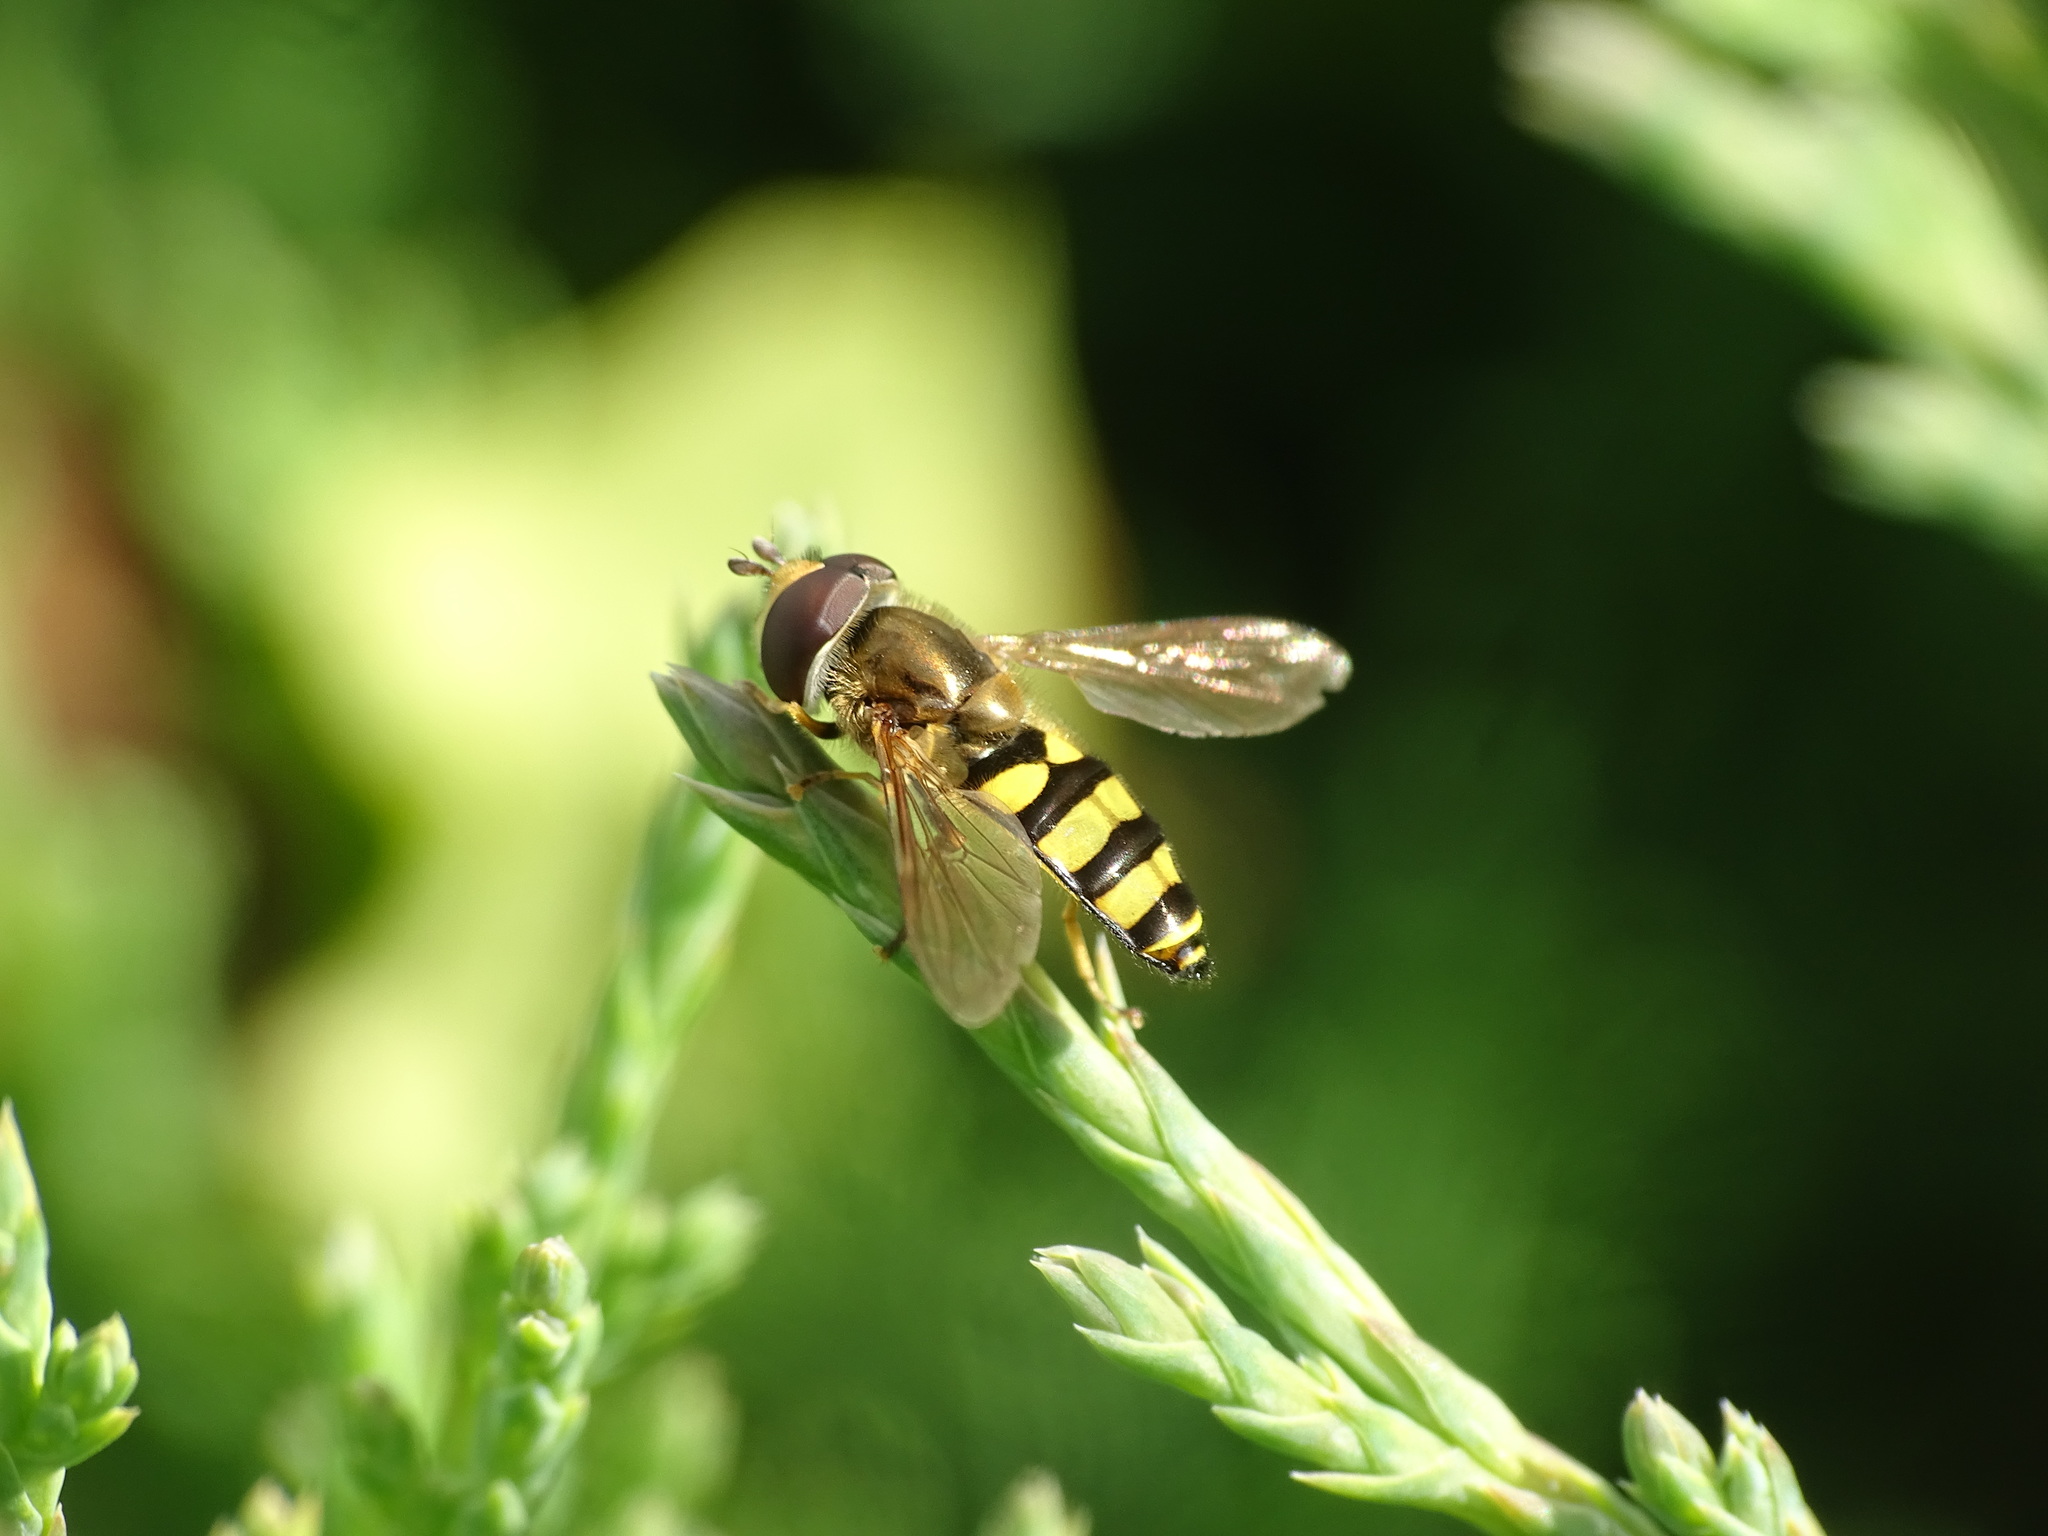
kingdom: Animalia
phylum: Arthropoda
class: Insecta
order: Diptera
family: Syrphidae
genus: Eupeodes
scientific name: Eupeodes
